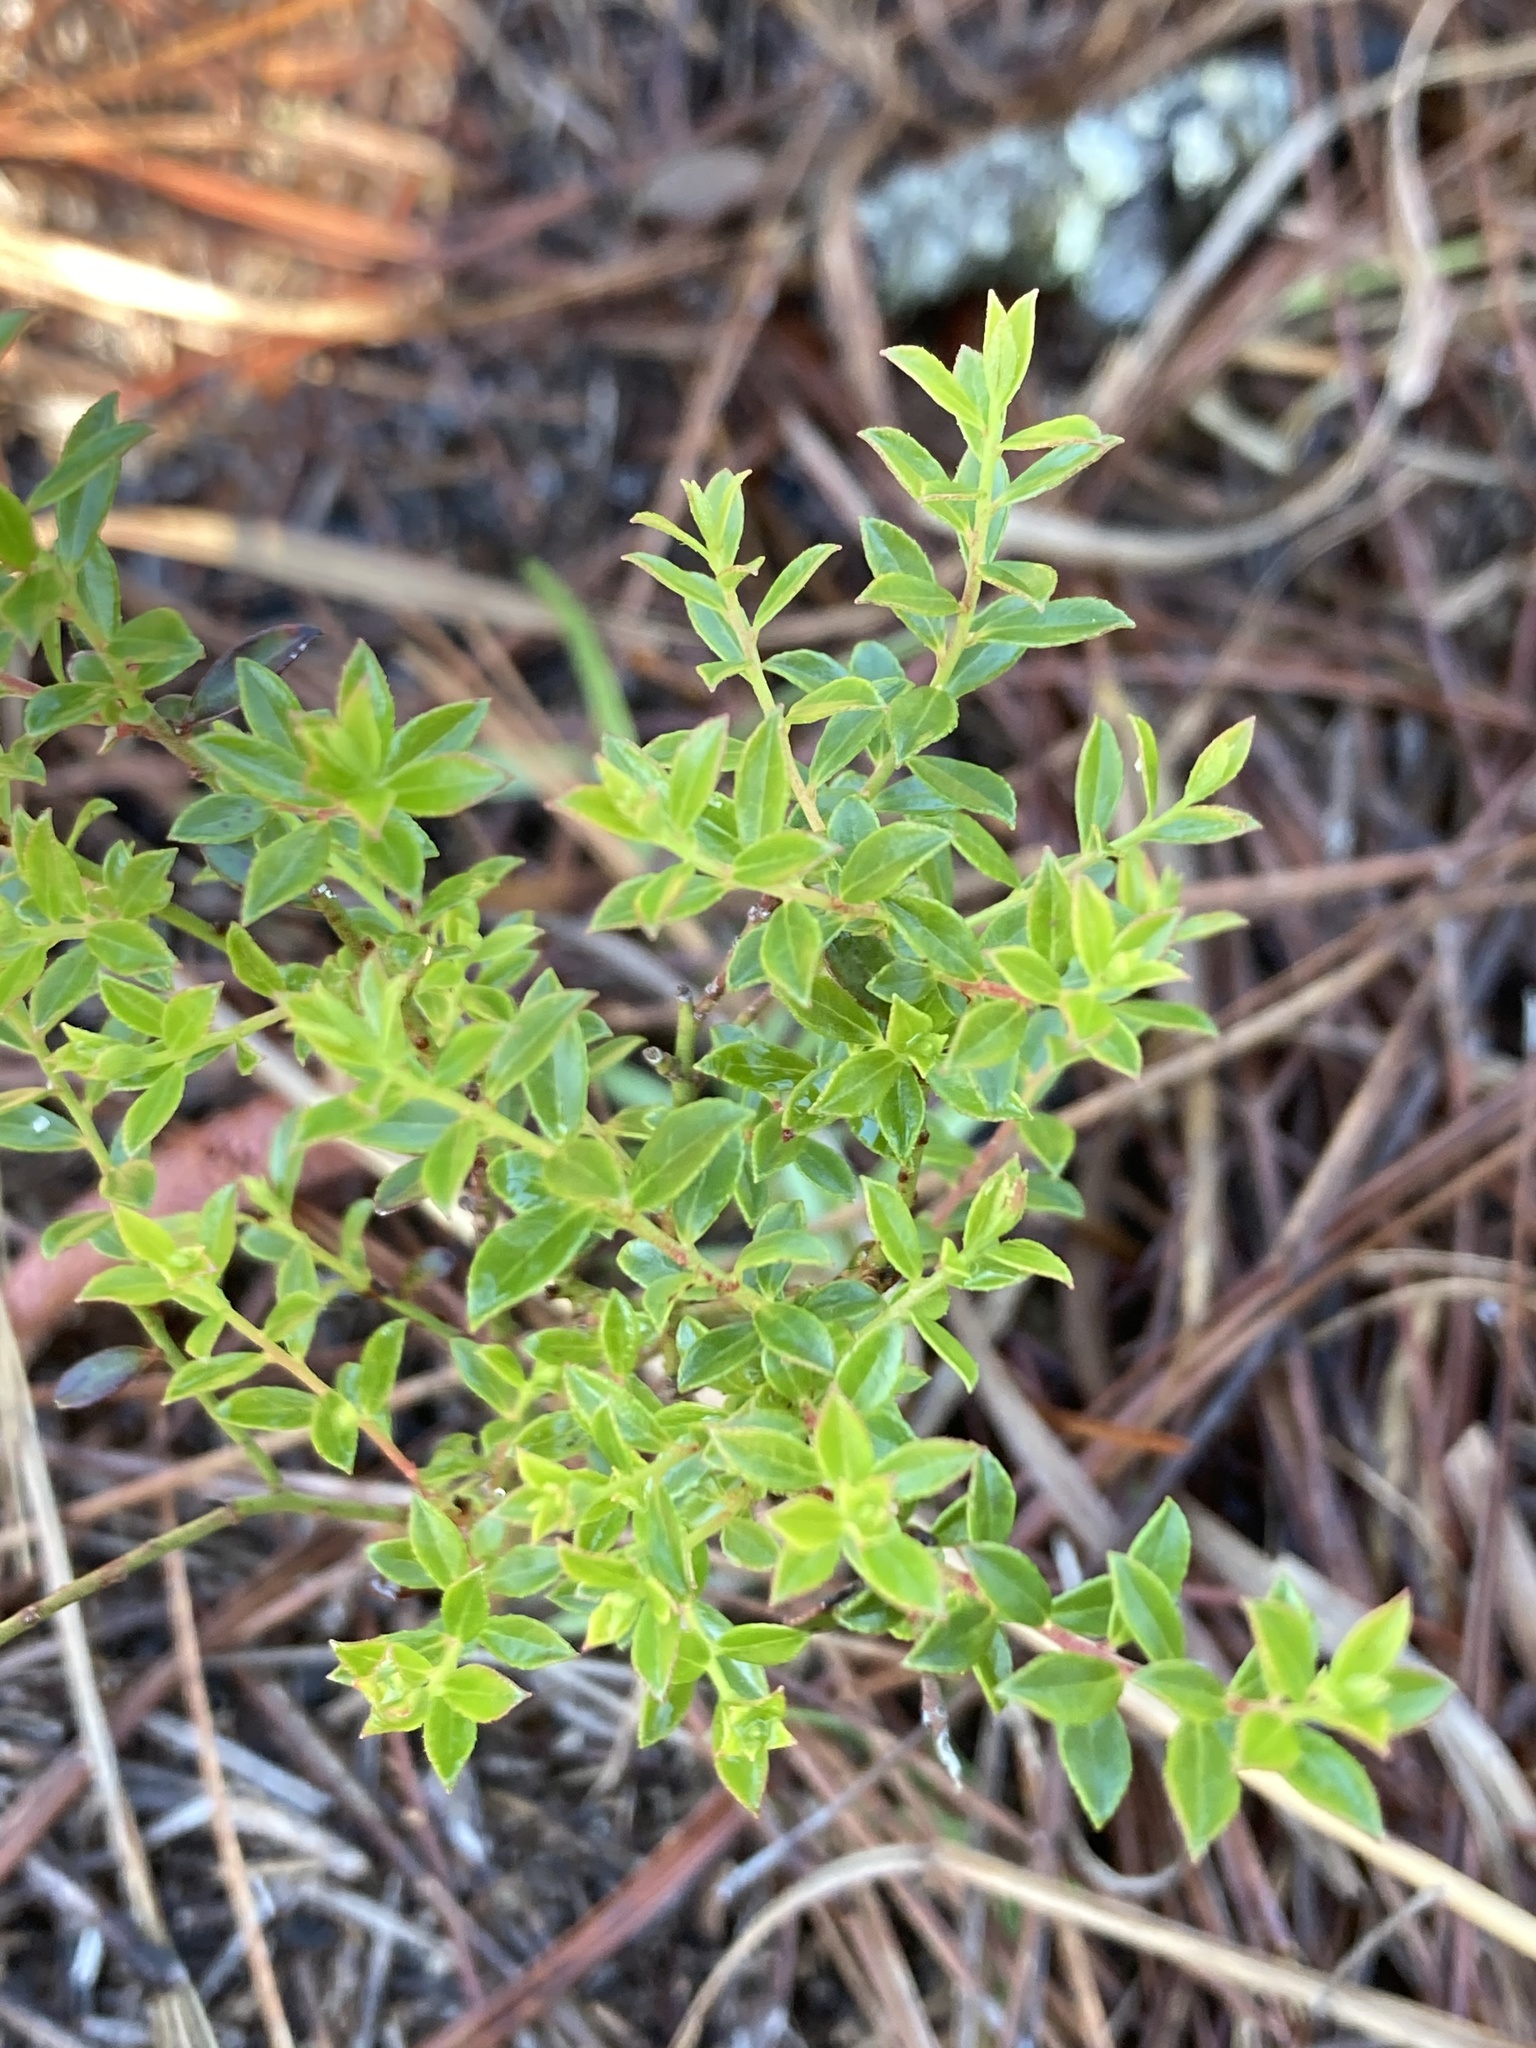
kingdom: Plantae
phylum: Tracheophyta
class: Magnoliopsida
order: Ericales
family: Ericaceae
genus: Vaccinium
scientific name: Vaccinium myrsinites
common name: Evergreen blueberry
